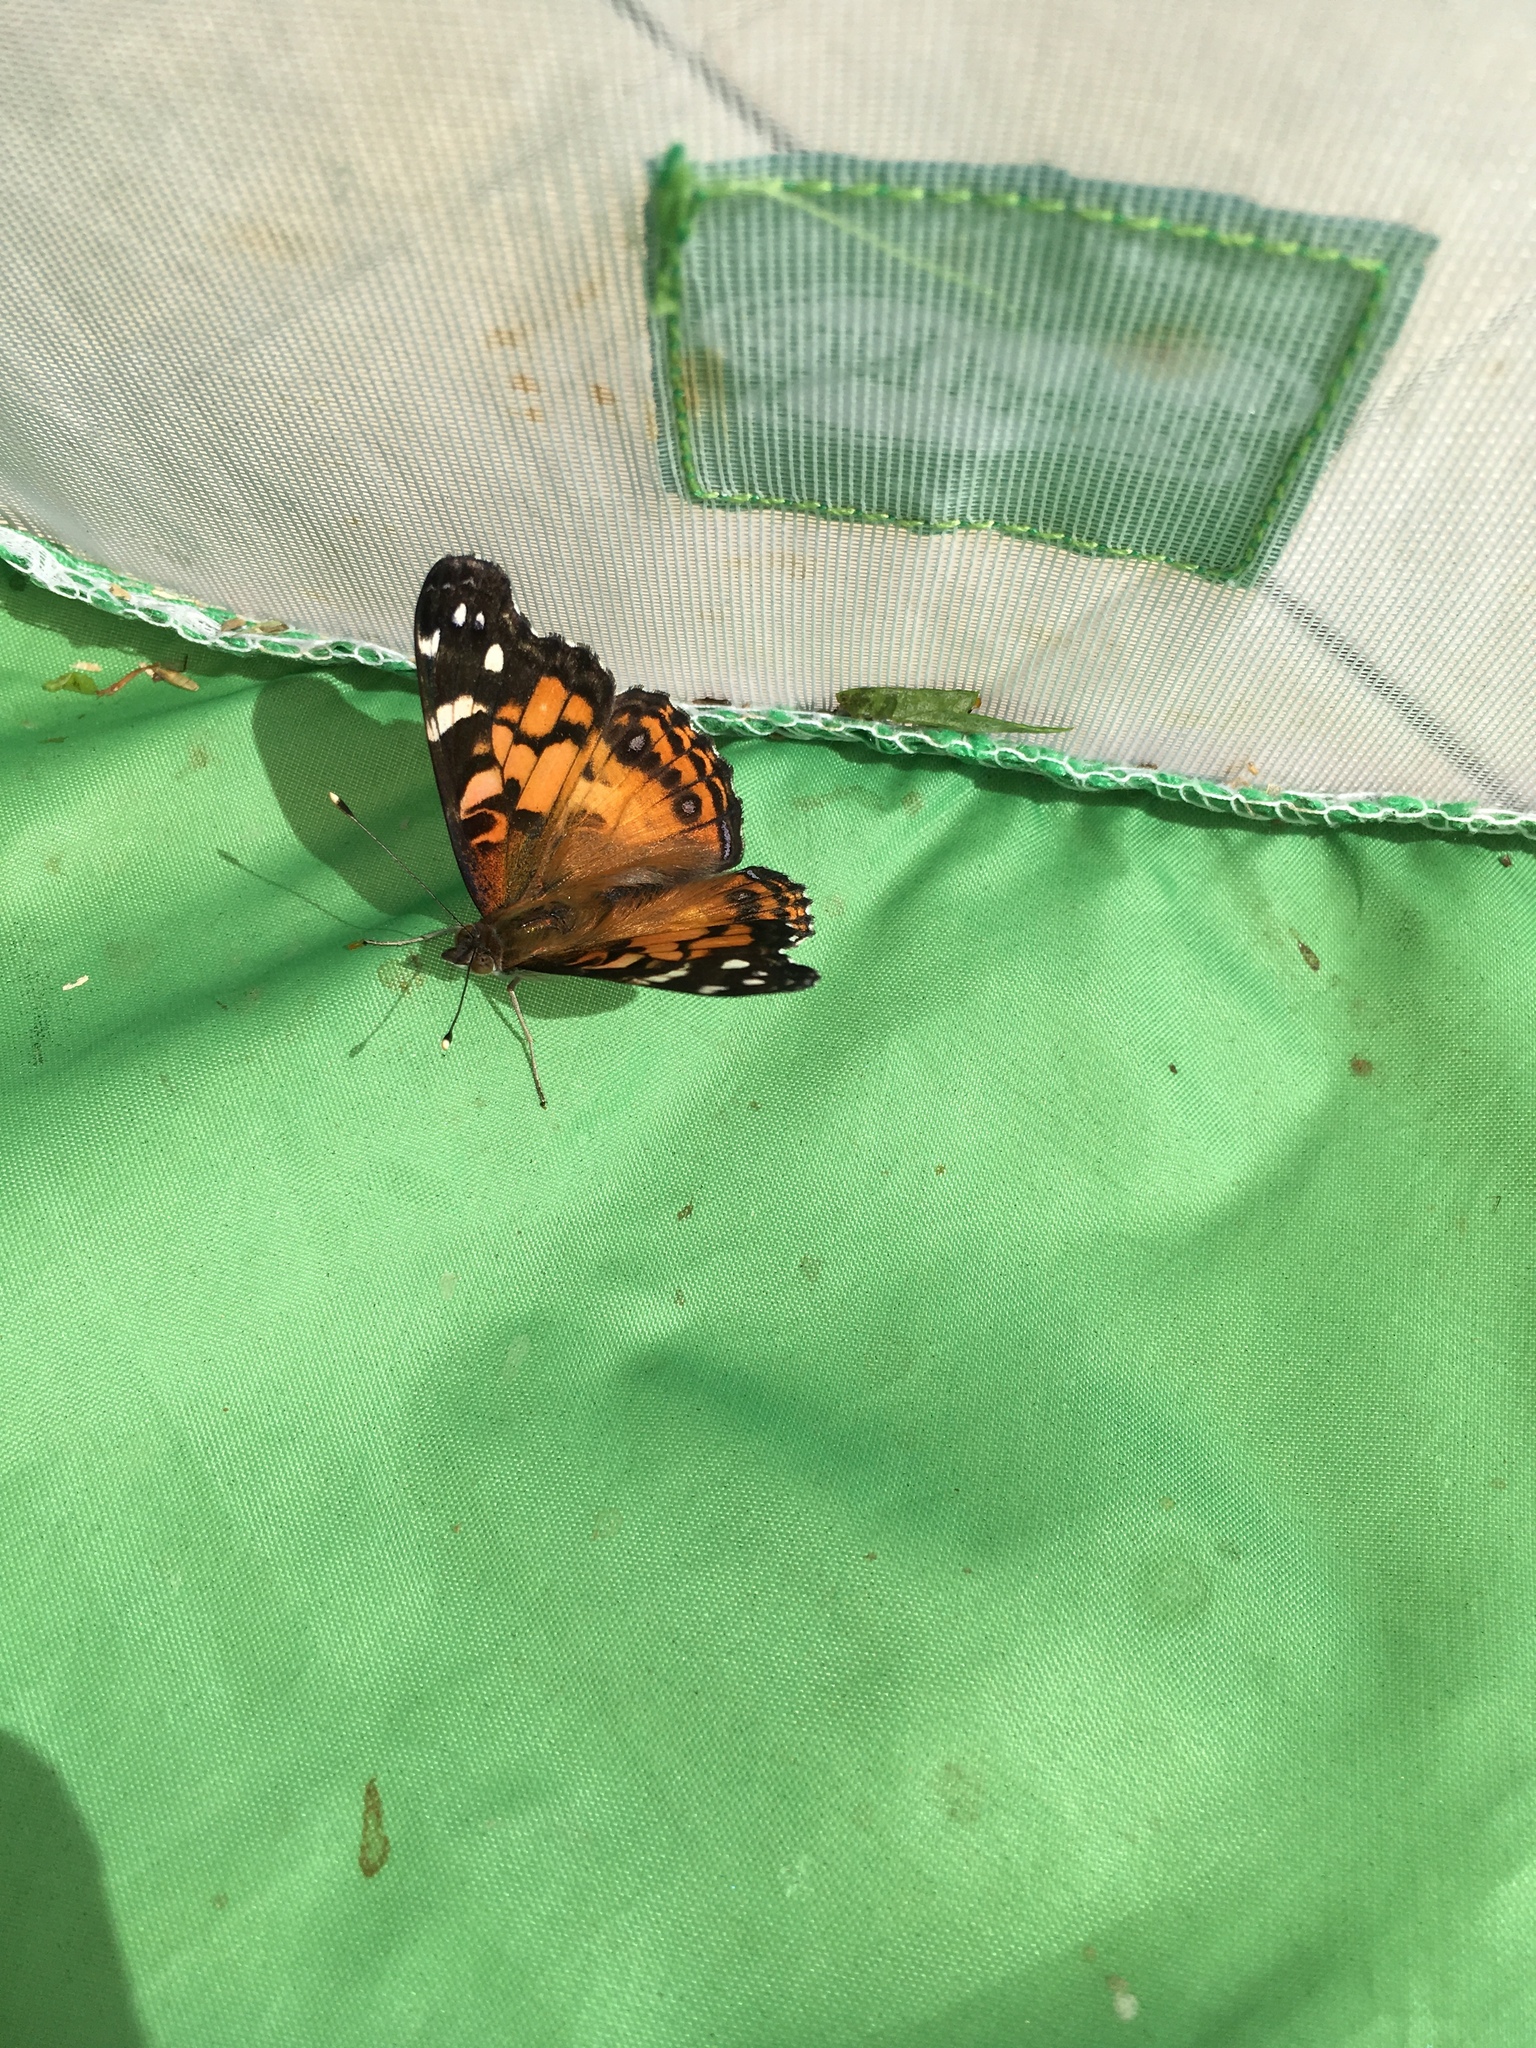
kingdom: Animalia
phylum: Arthropoda
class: Insecta
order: Lepidoptera
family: Nymphalidae
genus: Vanessa
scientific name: Vanessa virginiensis
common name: American lady
